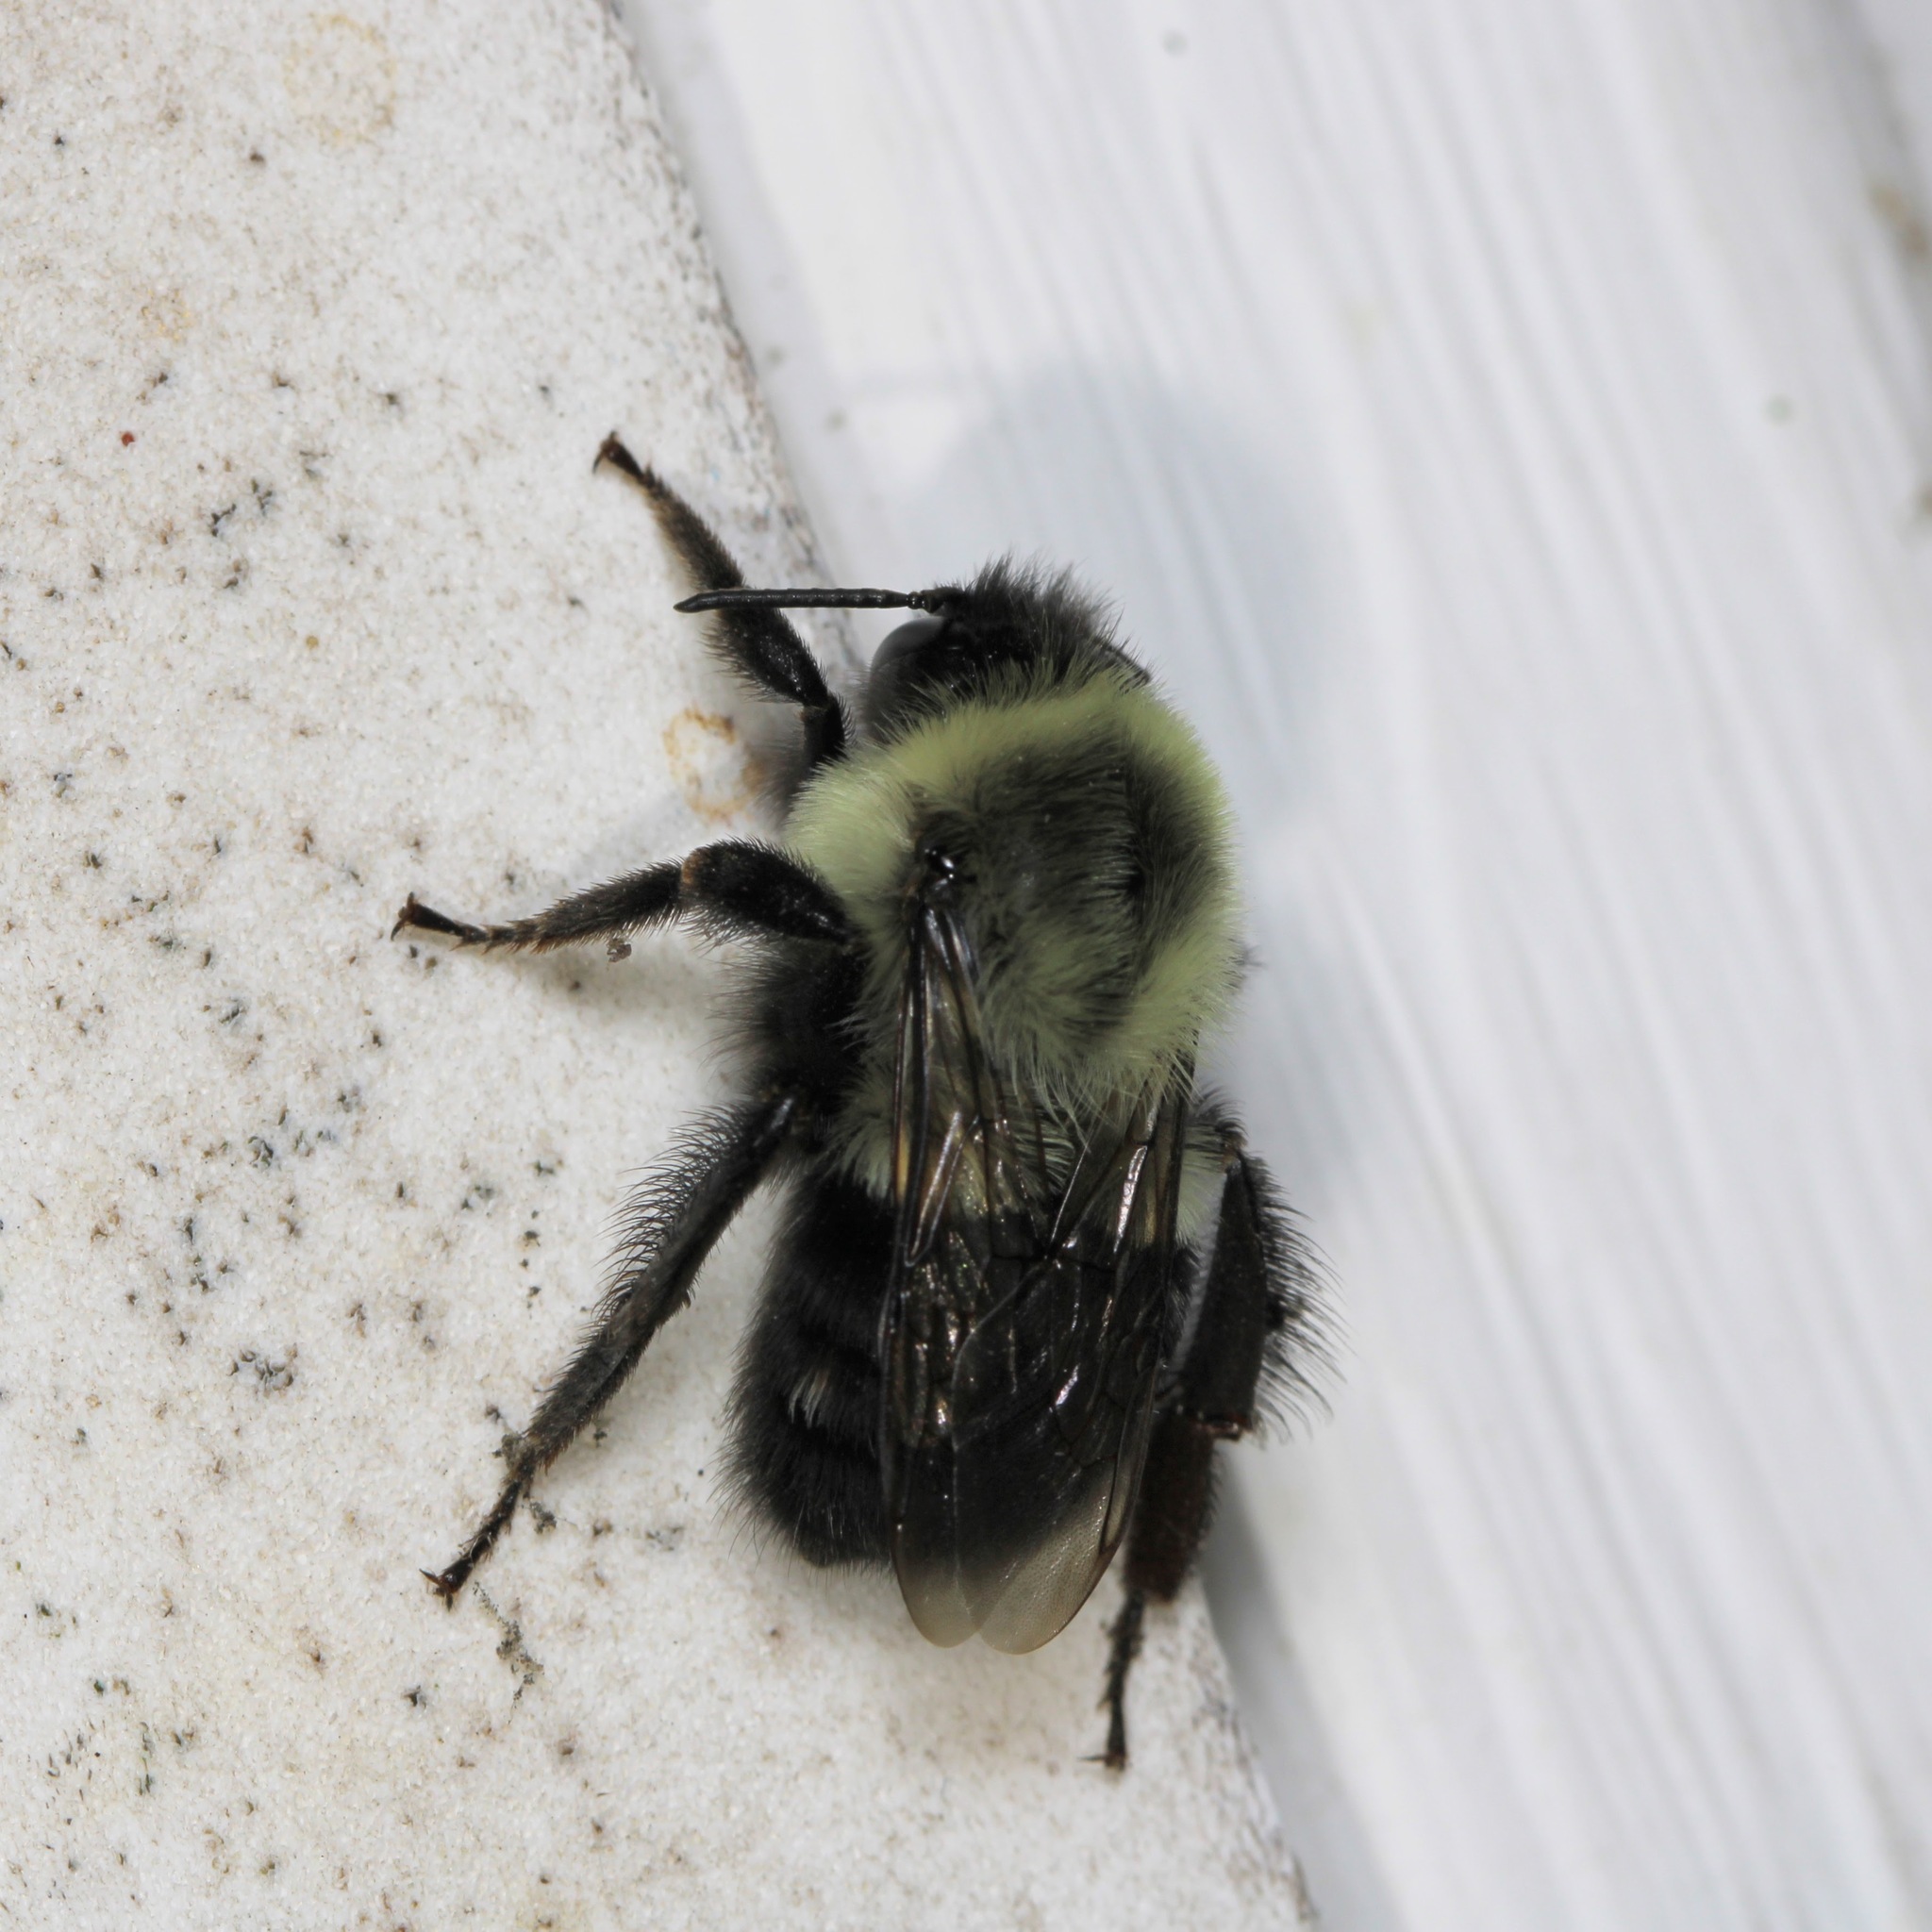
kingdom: Animalia
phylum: Arthropoda
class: Insecta
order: Hymenoptera
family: Apidae
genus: Bombus
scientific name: Bombus impatiens
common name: Common eastern bumble bee
